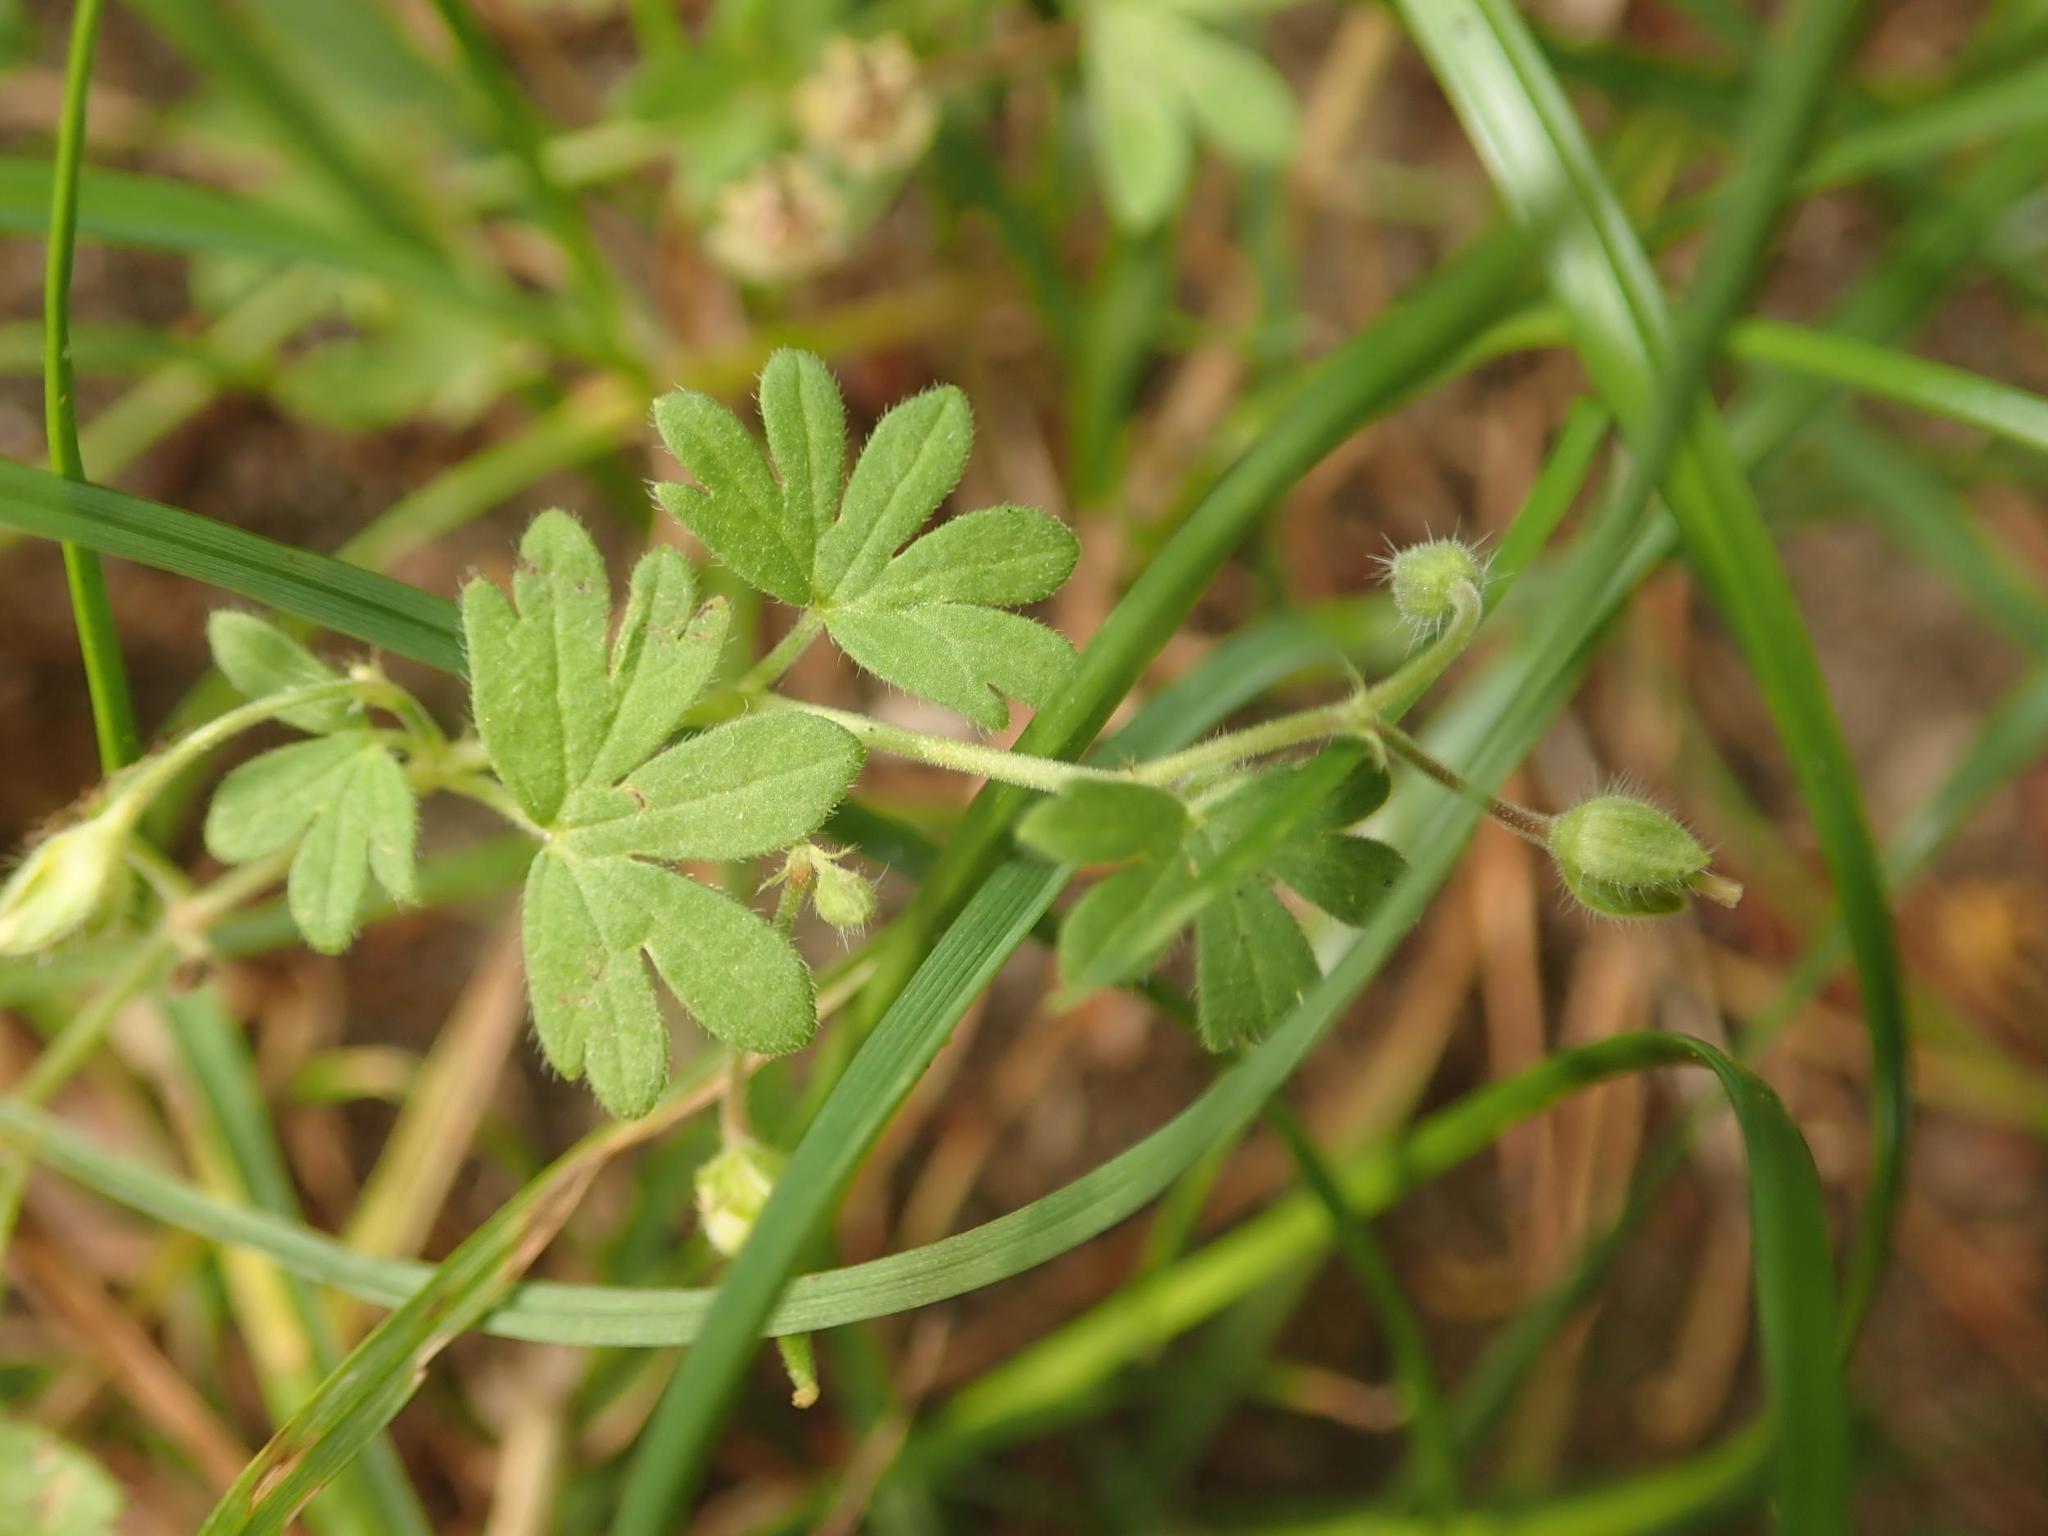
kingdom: Plantae
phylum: Tracheophyta
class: Magnoliopsida
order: Geraniales
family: Geraniaceae
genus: Geranium
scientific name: Geranium pusillum
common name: Small geranium
